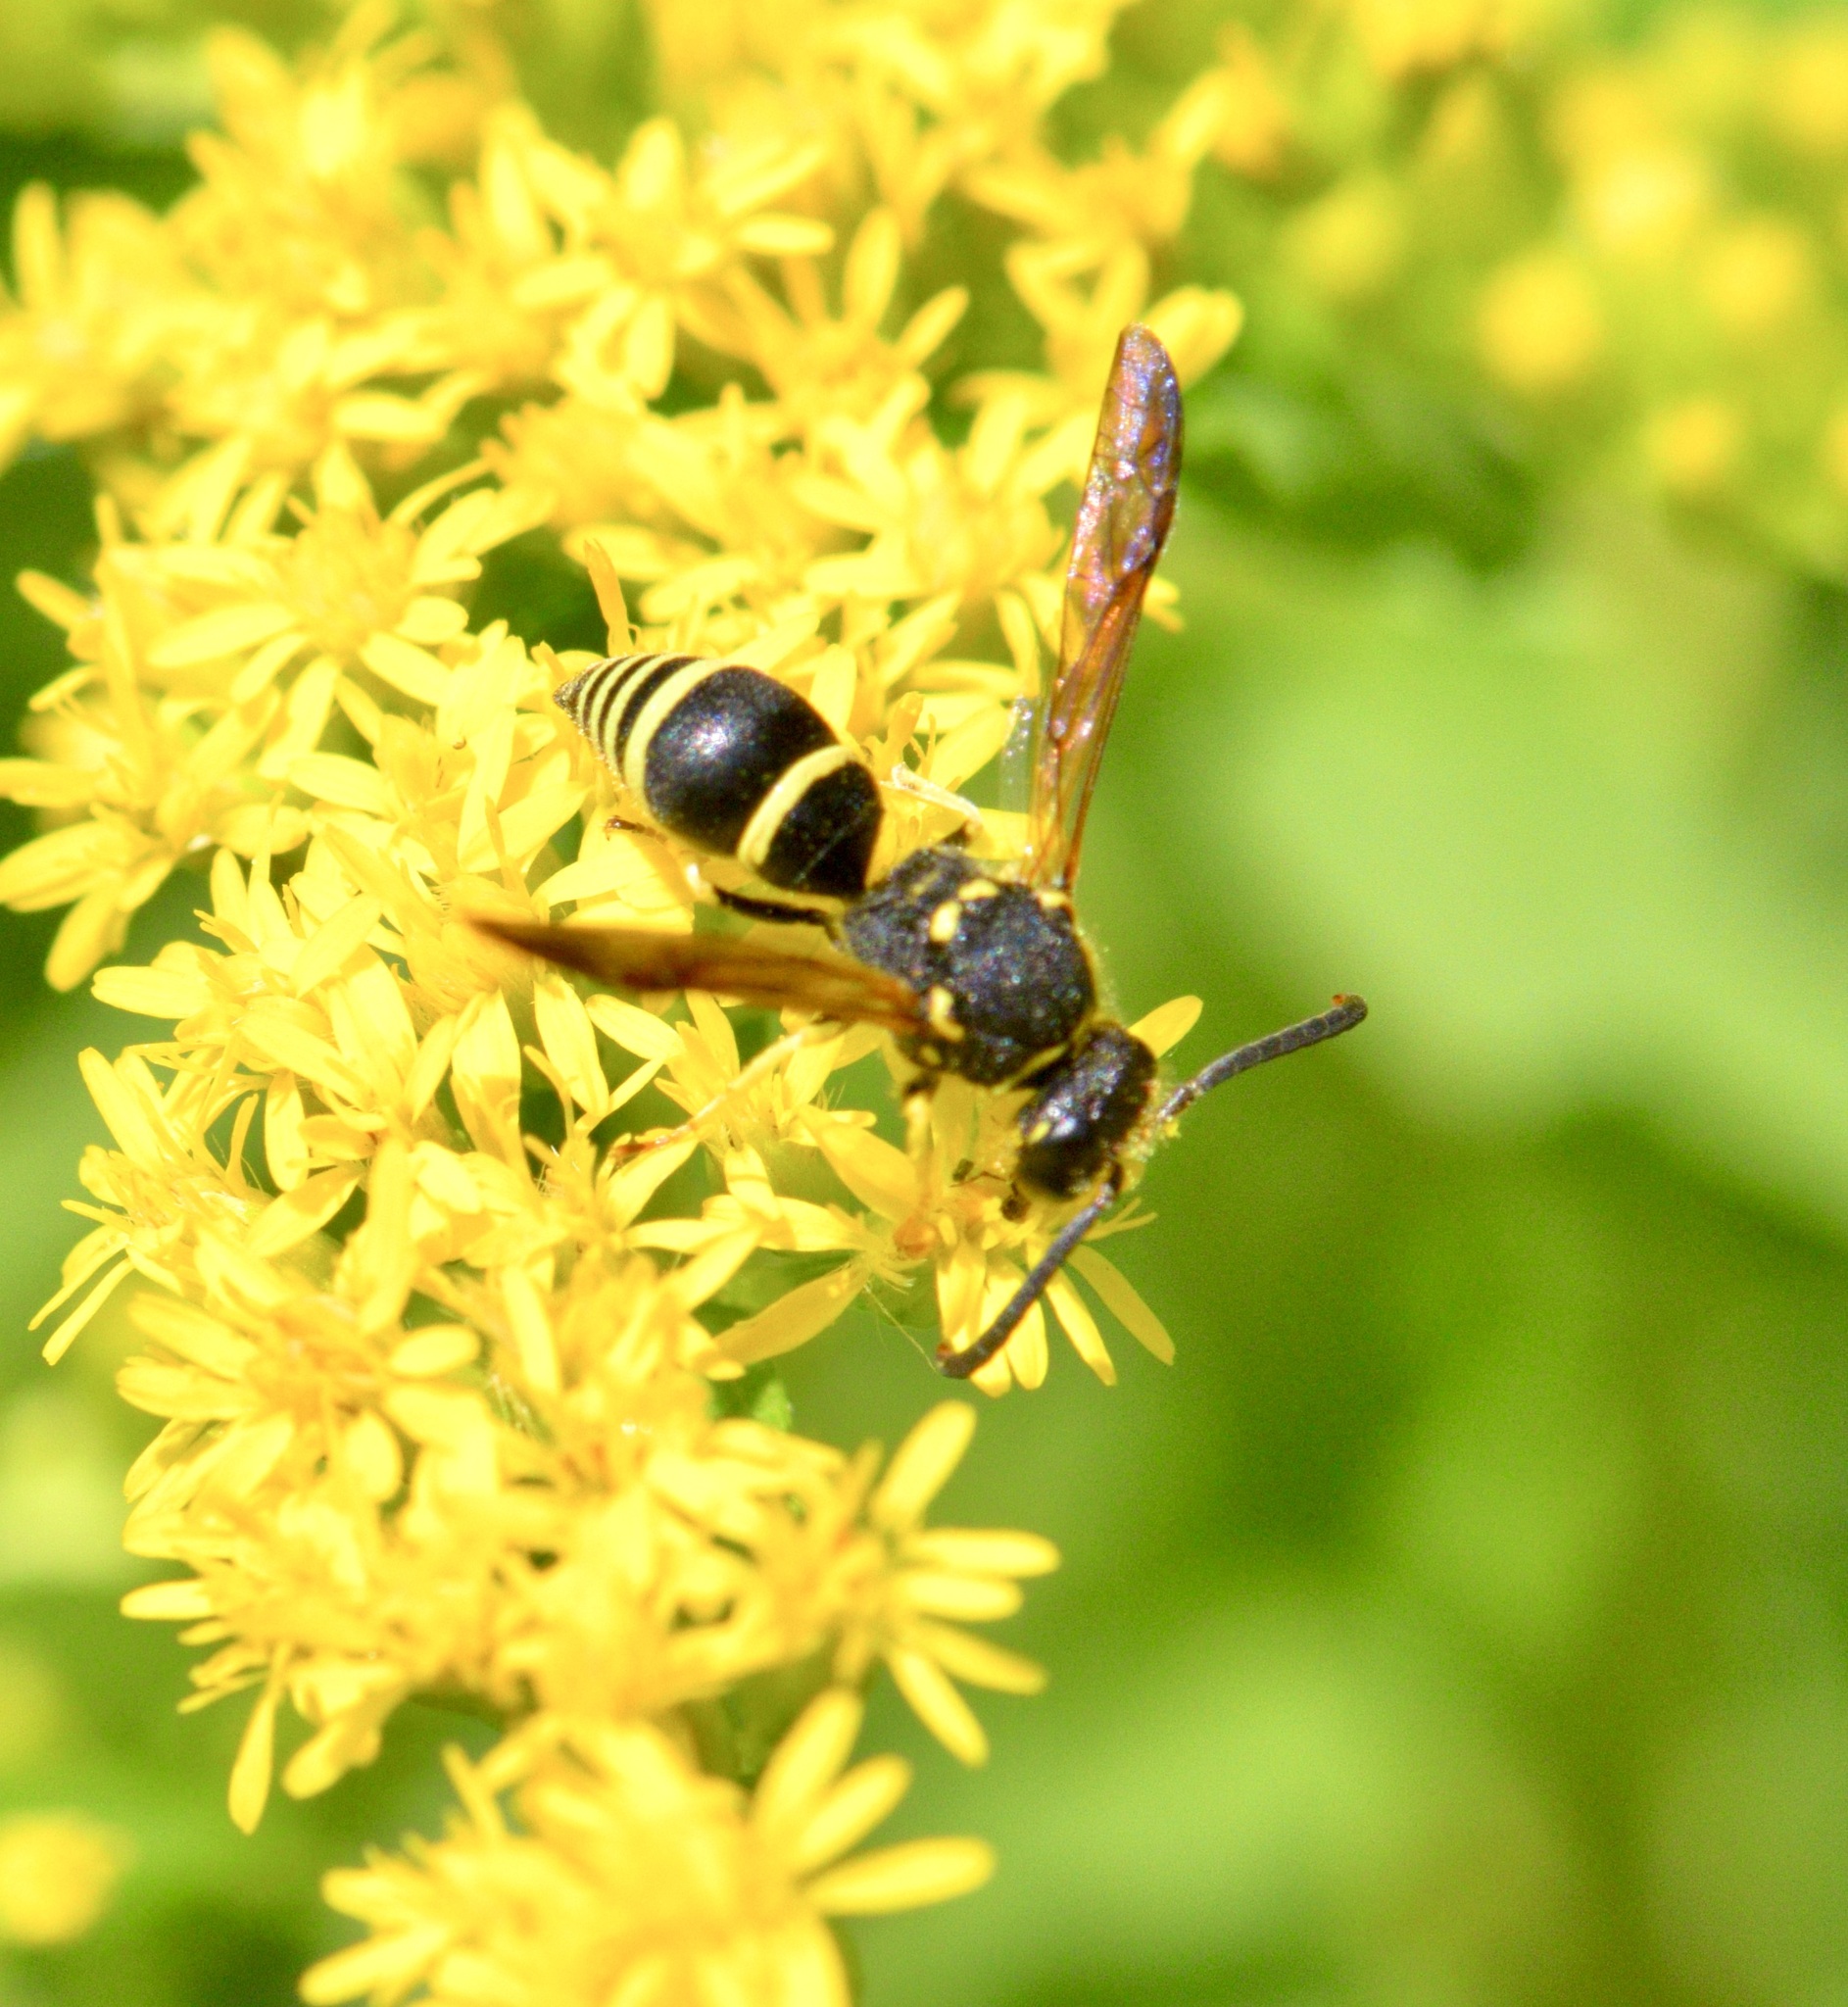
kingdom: Animalia
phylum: Arthropoda
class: Insecta
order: Hymenoptera
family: Vespidae
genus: Ancistrocerus
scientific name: Ancistrocerus adiabatus
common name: Bramble mason wasp
